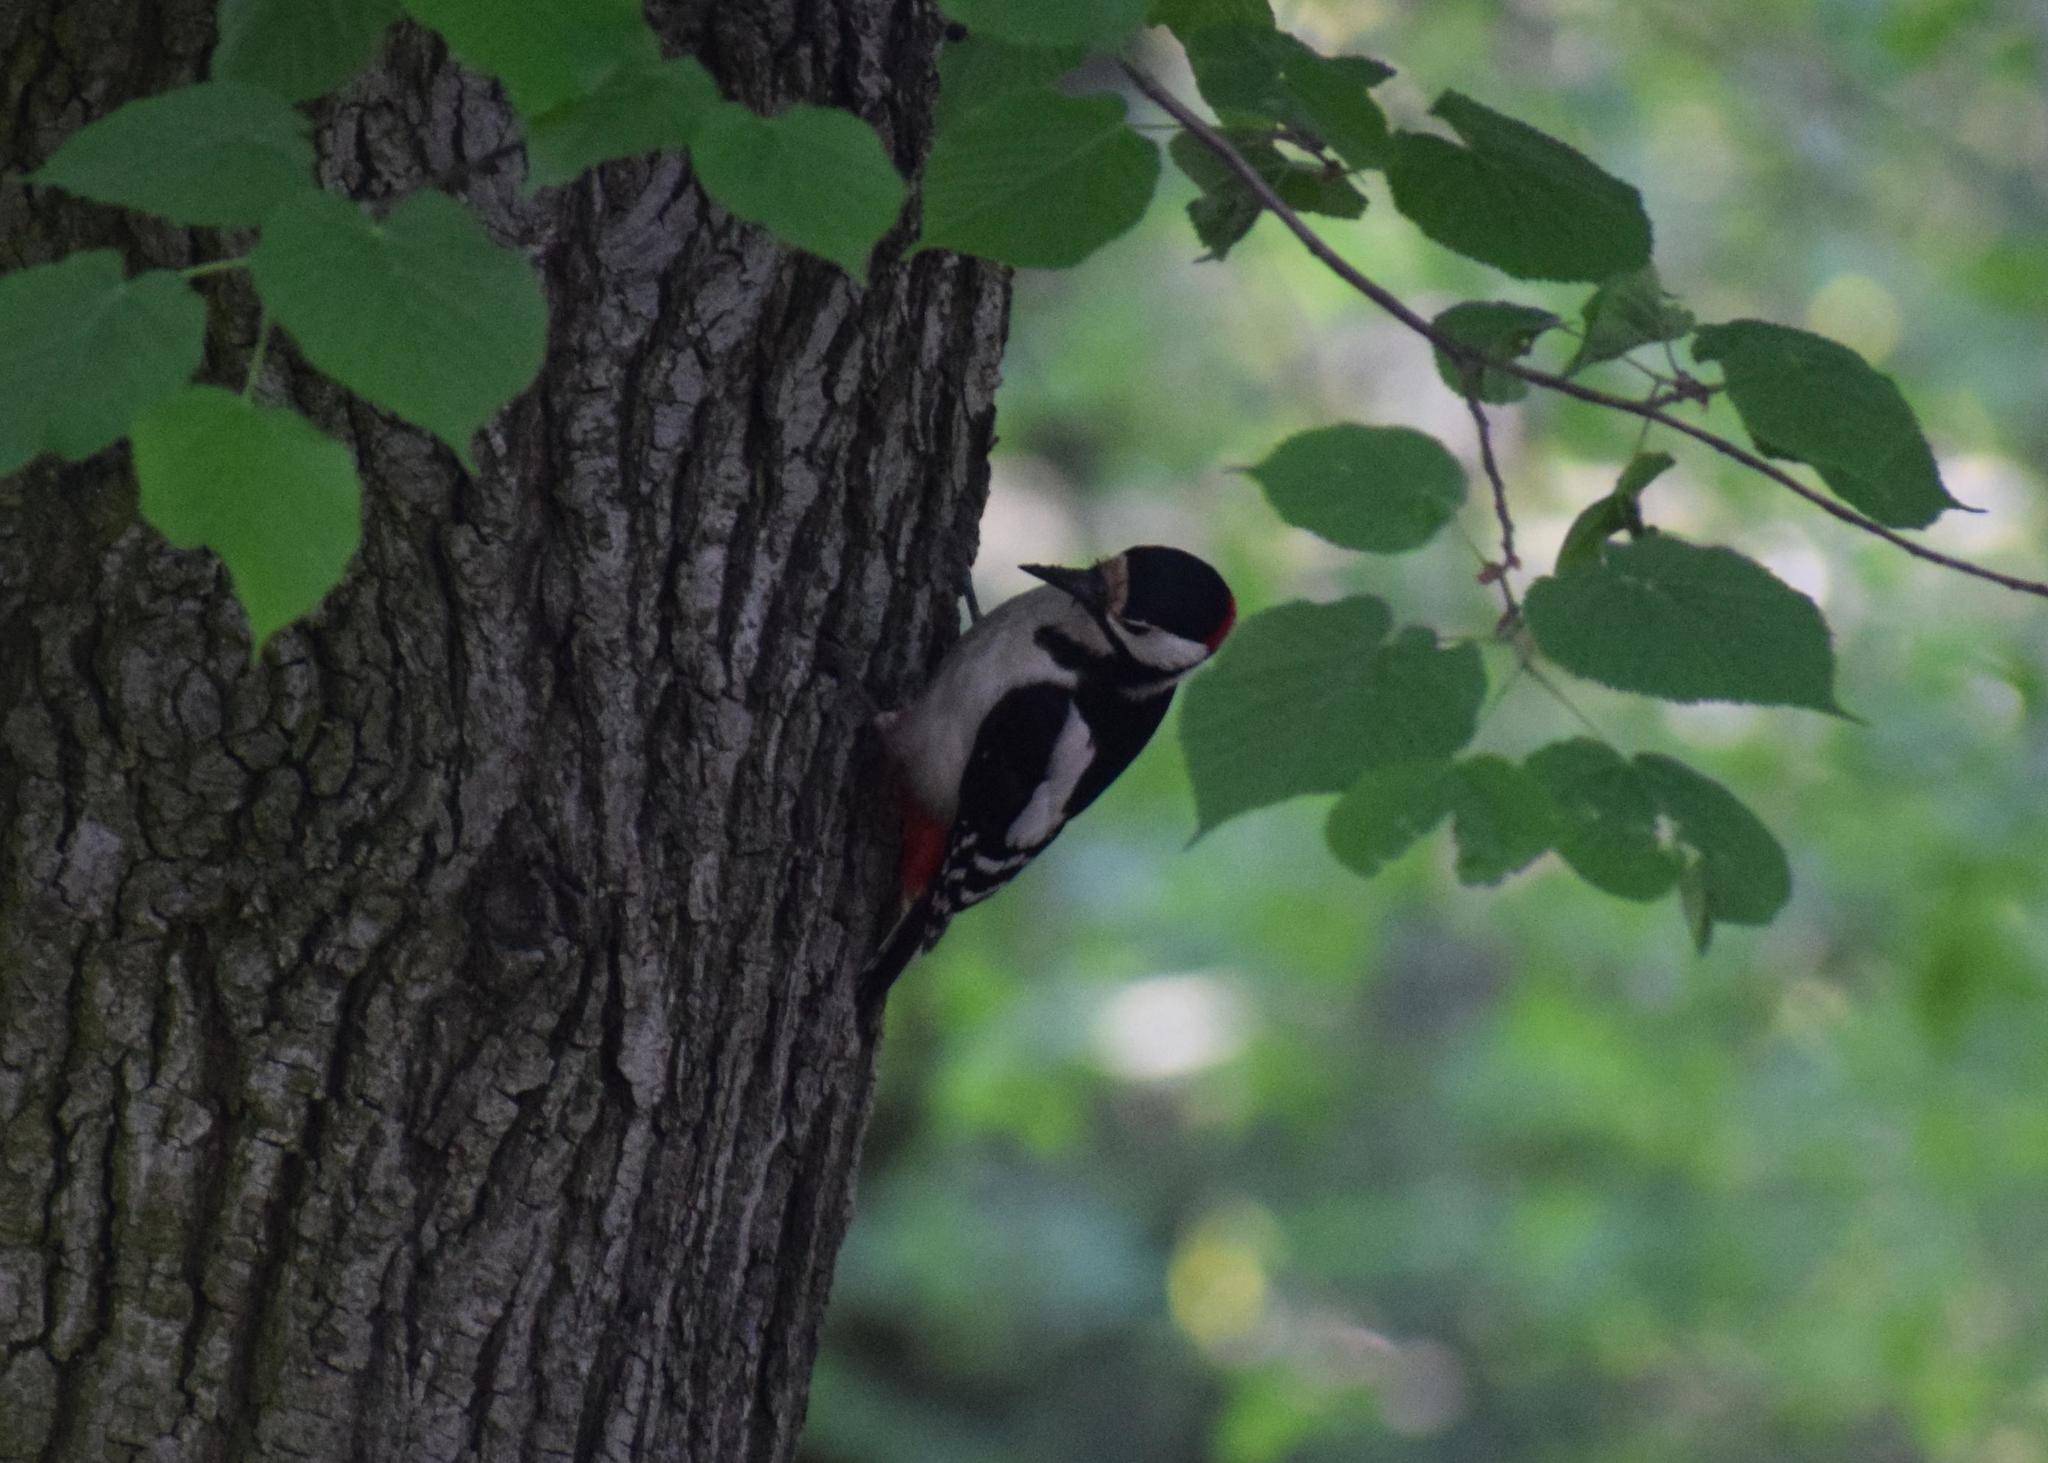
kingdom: Animalia
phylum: Chordata
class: Aves
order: Piciformes
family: Picidae
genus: Dendrocopos
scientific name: Dendrocopos major
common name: Great spotted woodpecker
